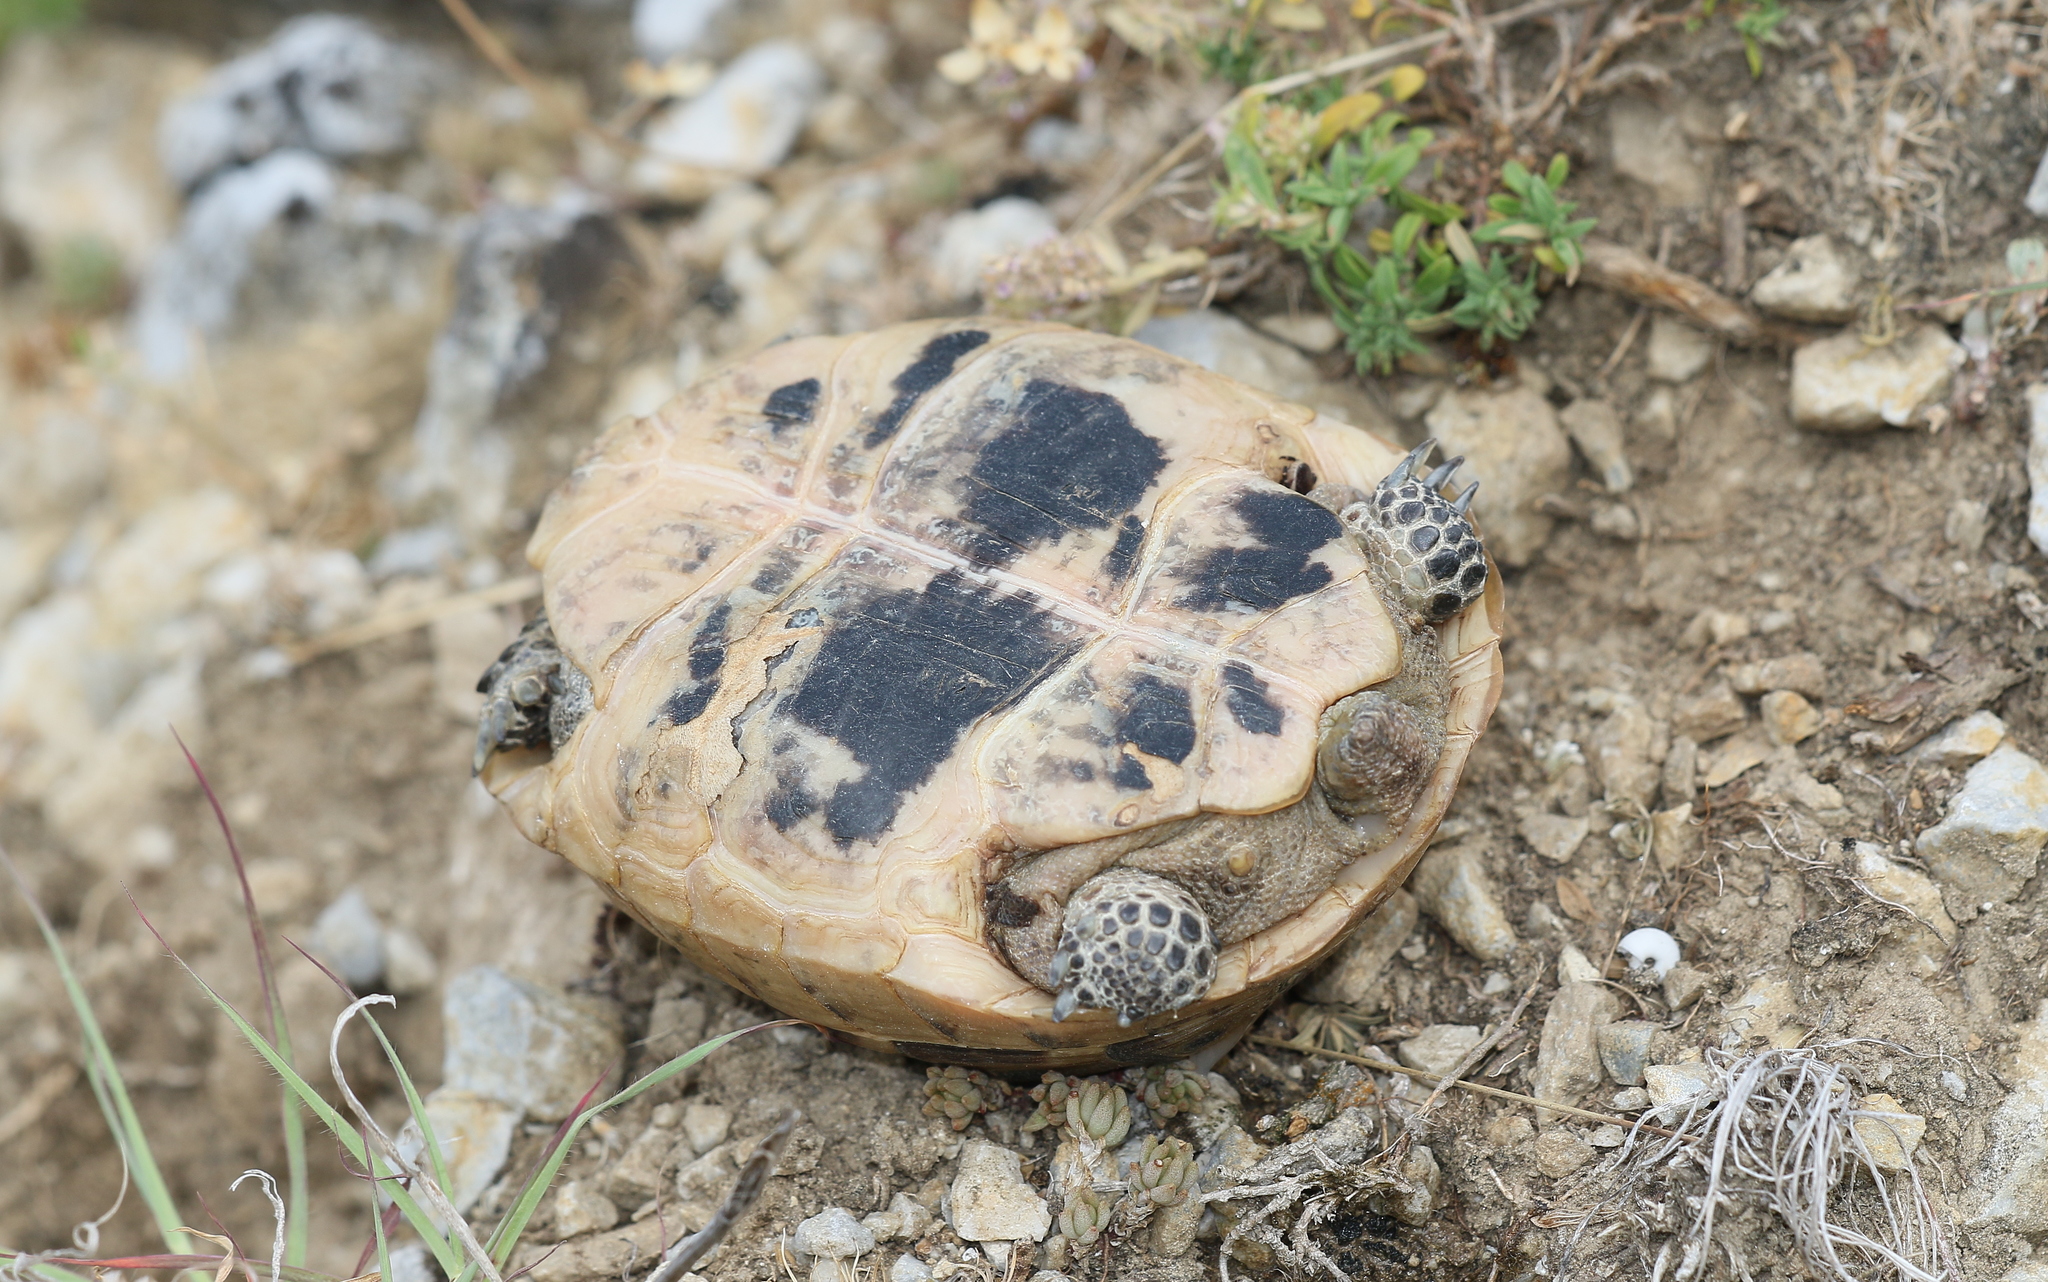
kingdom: Animalia
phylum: Chordata
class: Testudines
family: Testudinidae
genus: Testudo
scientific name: Testudo graeca
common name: Common tortoise
